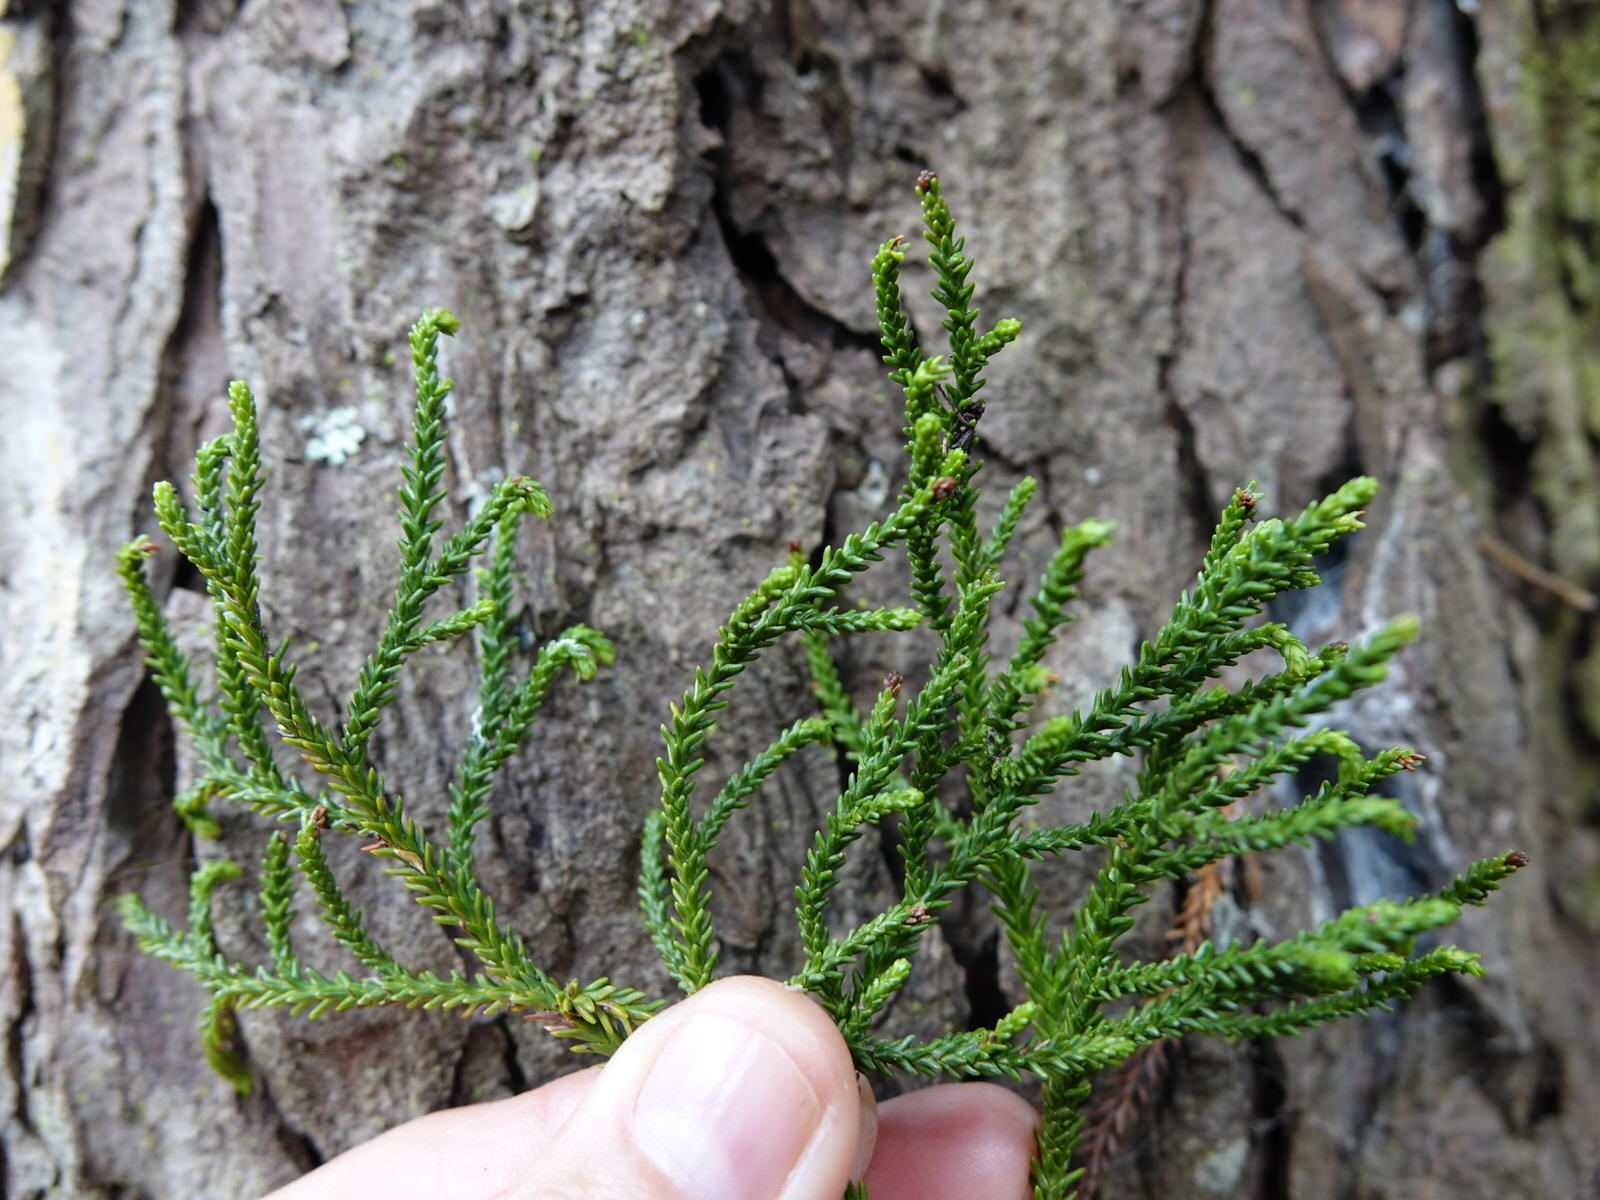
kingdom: Plantae
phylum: Tracheophyta
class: Pinopsida
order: Pinales
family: Podocarpaceae
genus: Dacrydium
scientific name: Dacrydium cupressinum
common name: Red pine
